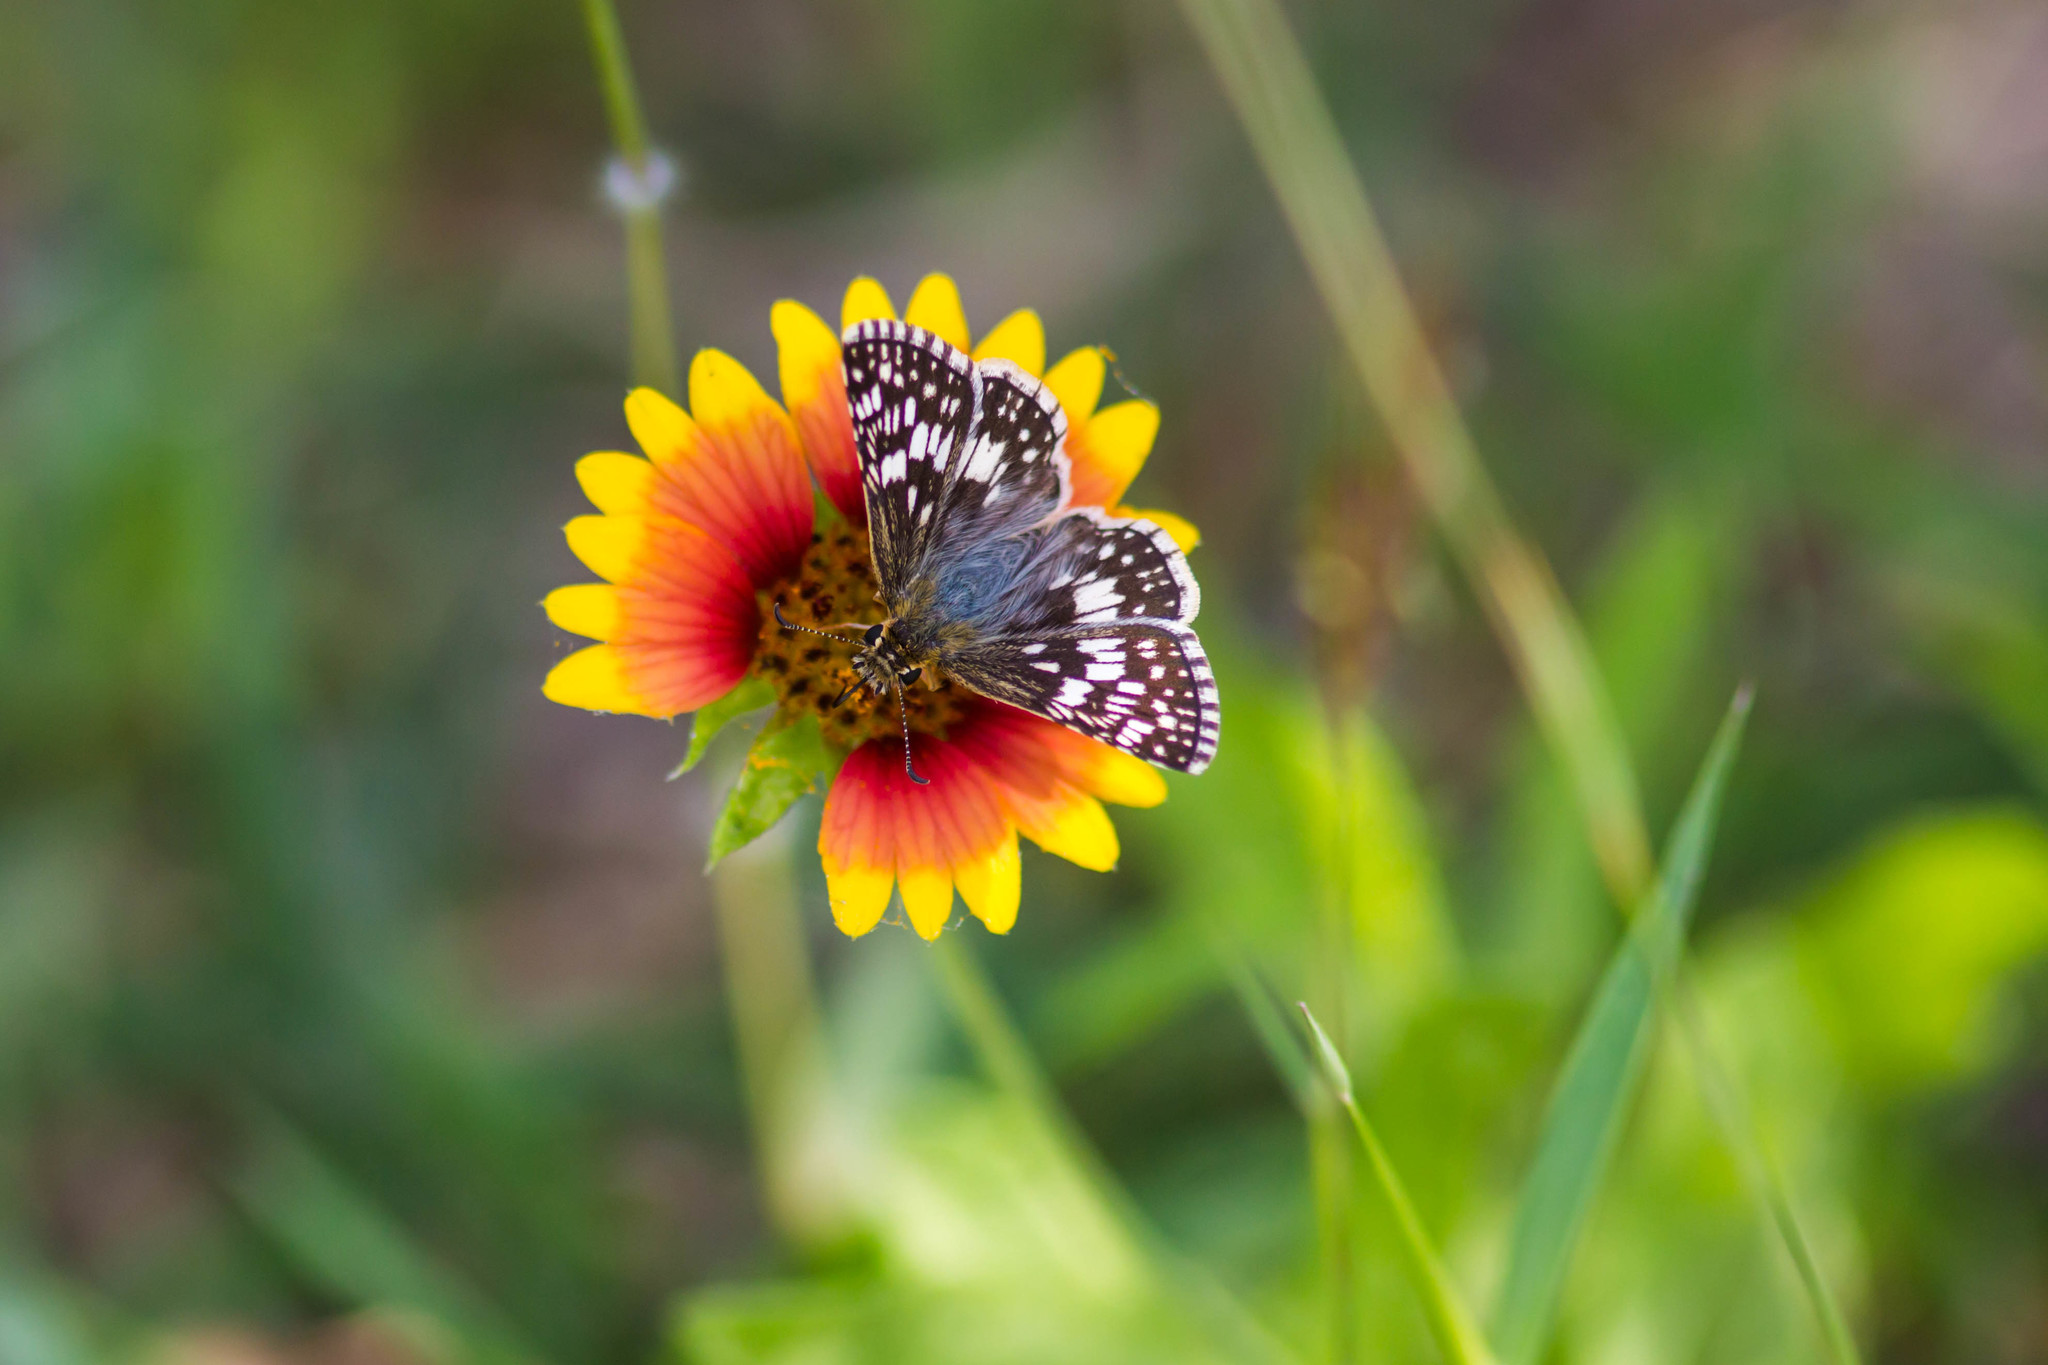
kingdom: Animalia
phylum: Arthropoda
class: Insecta
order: Lepidoptera
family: Hesperiidae
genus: Burnsius
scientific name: Burnsius
